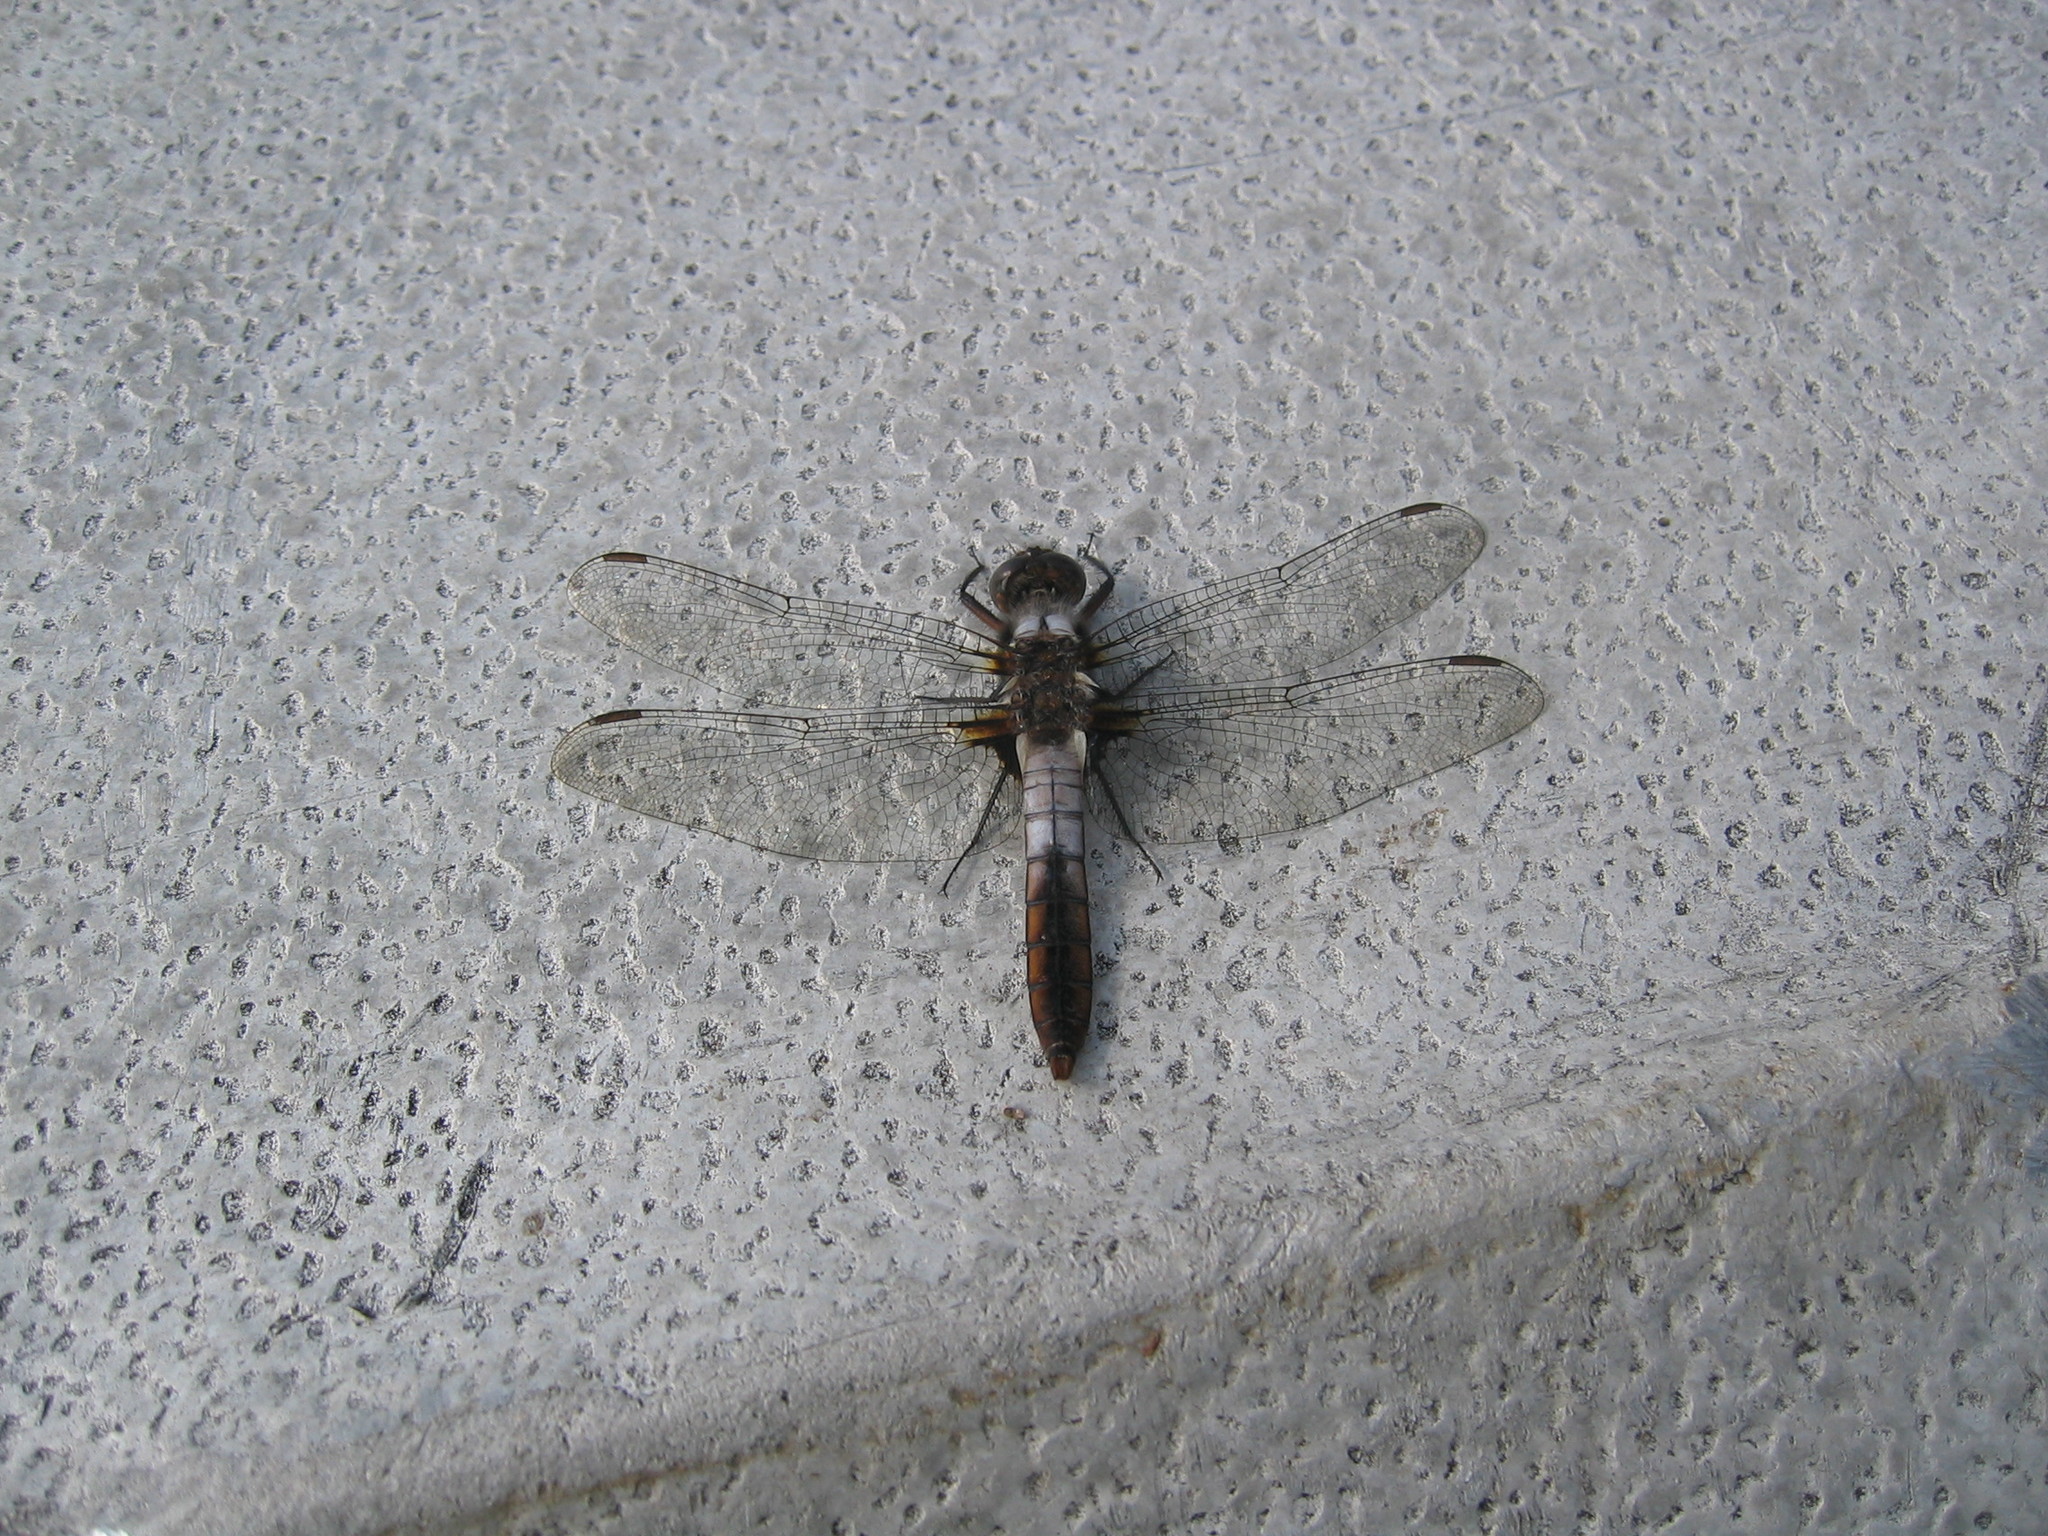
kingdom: Animalia
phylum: Arthropoda
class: Insecta
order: Odonata
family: Libellulidae
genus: Ladona
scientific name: Ladona julia
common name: Chalk-fronted corporal
